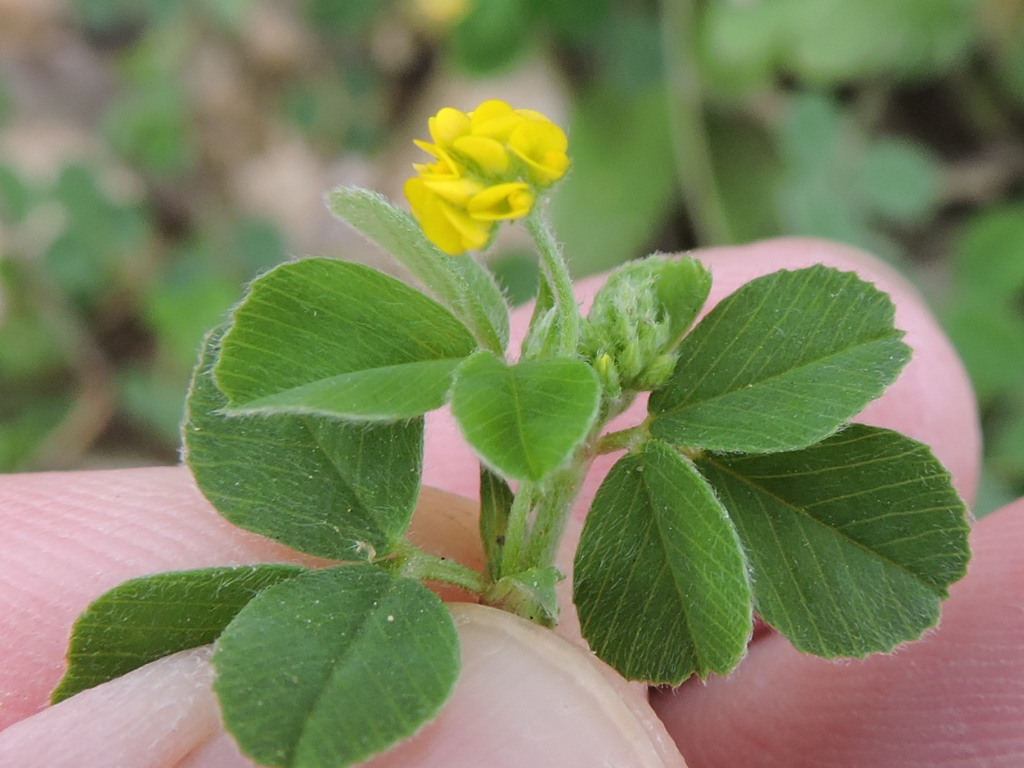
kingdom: Plantae
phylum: Tracheophyta
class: Magnoliopsida
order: Fabales
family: Fabaceae
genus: Medicago
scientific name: Medicago lupulina
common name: Black medick
